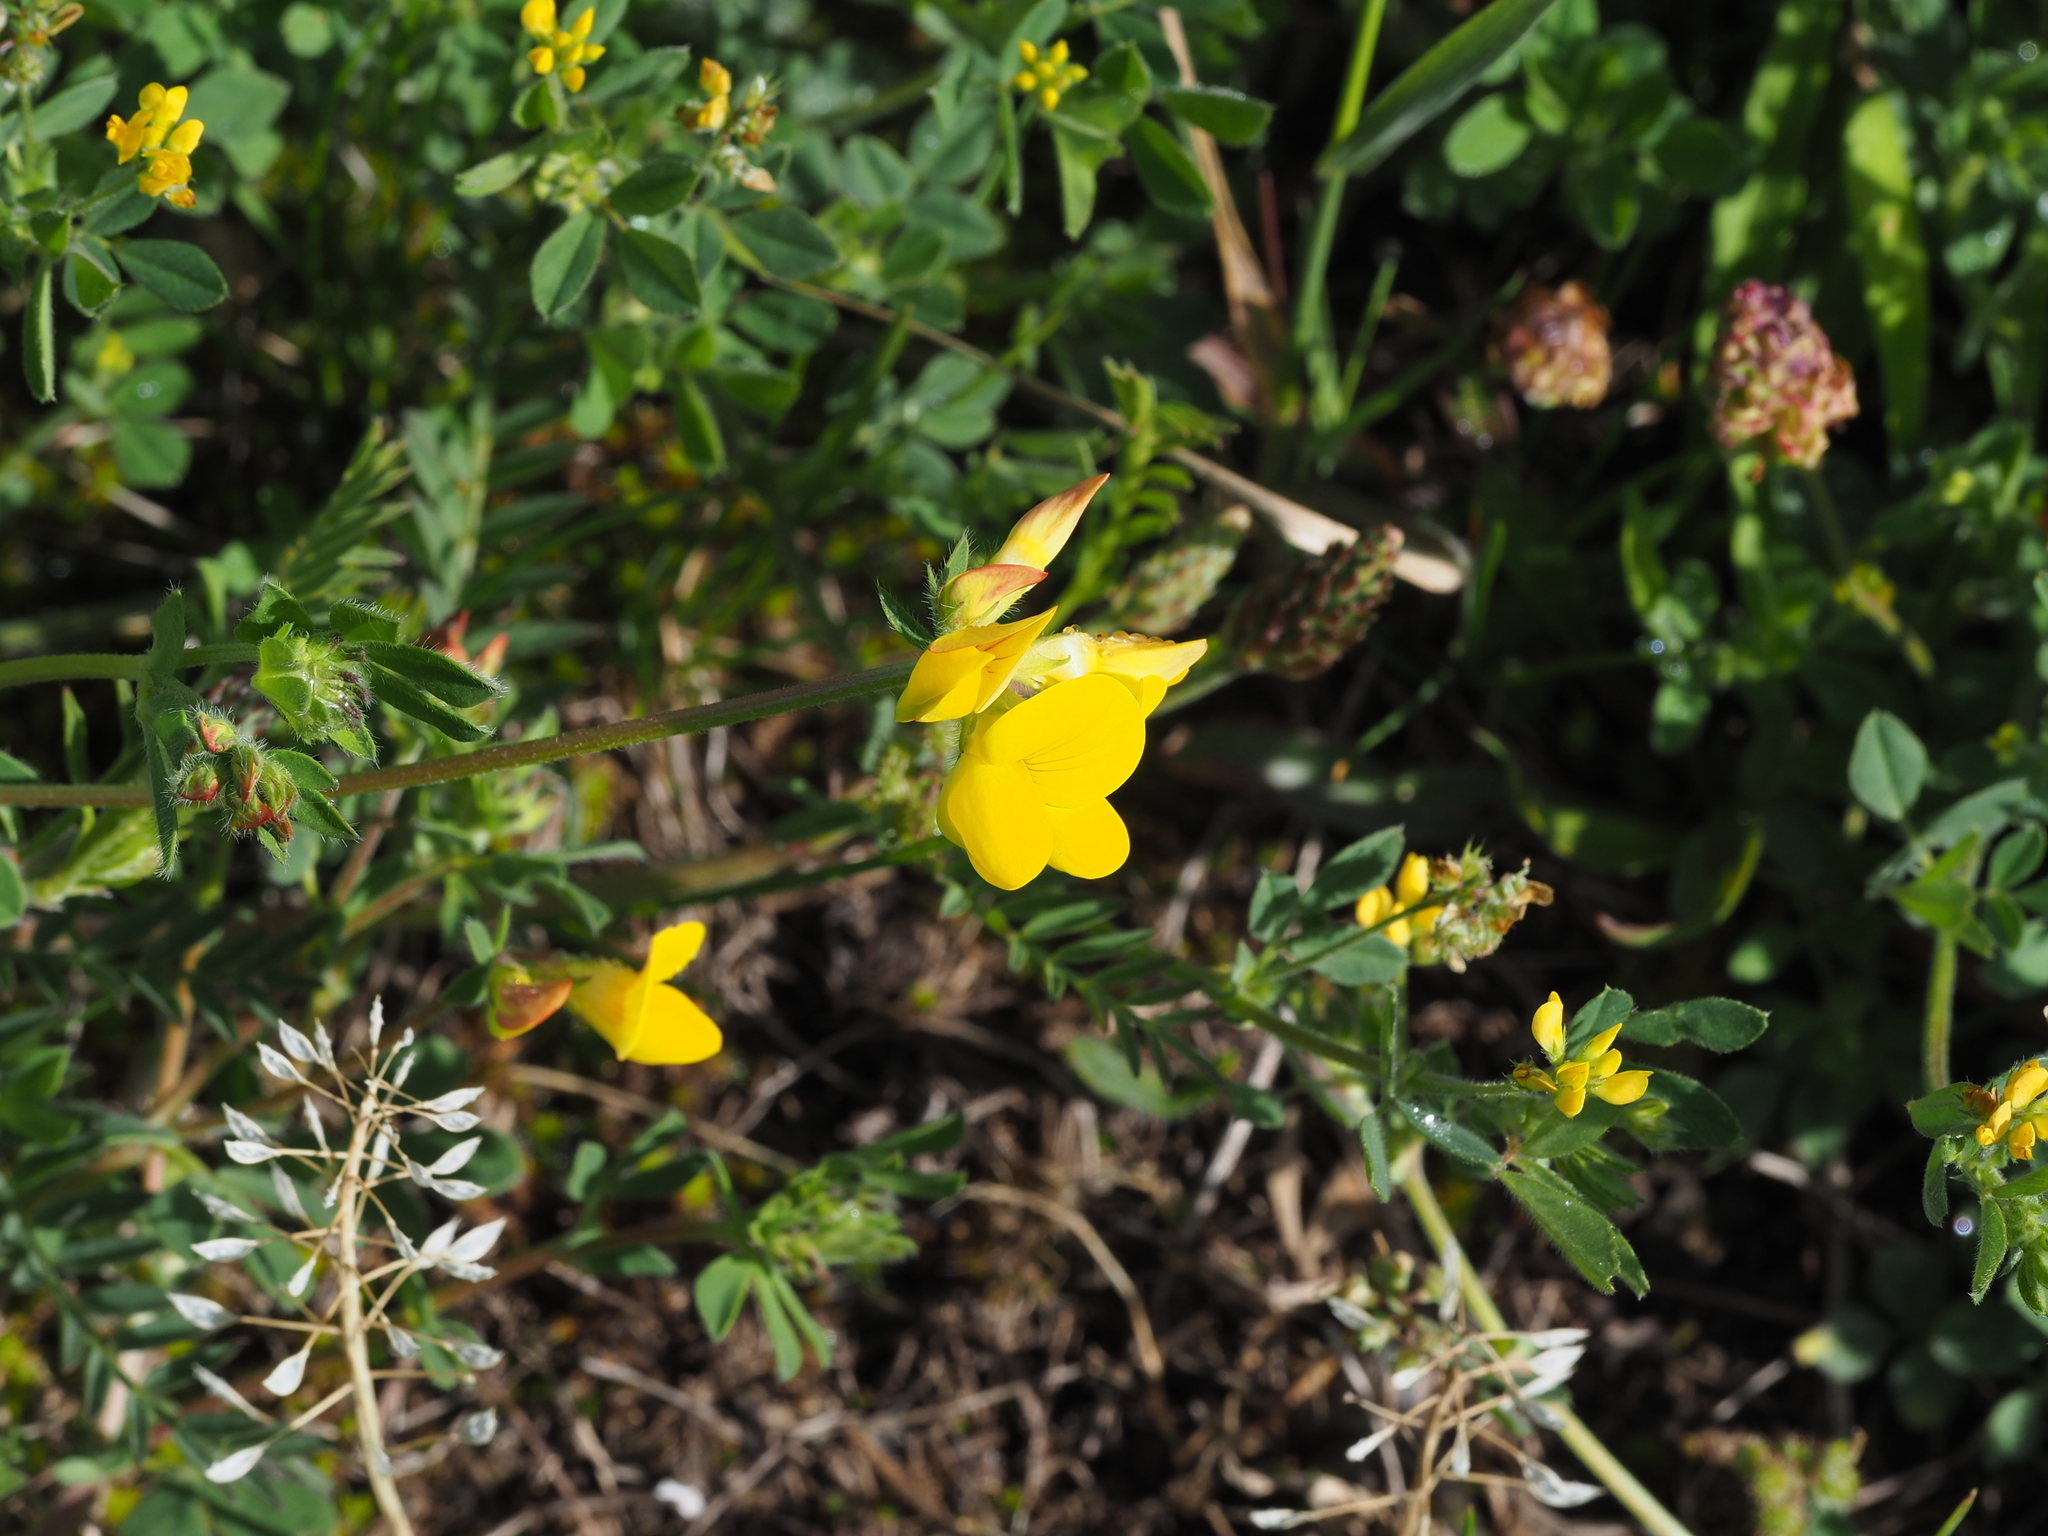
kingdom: Plantae
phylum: Tracheophyta
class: Magnoliopsida
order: Fabales
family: Fabaceae
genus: Lotus
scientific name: Lotus corniculatus
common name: Common bird's-foot-trefoil
